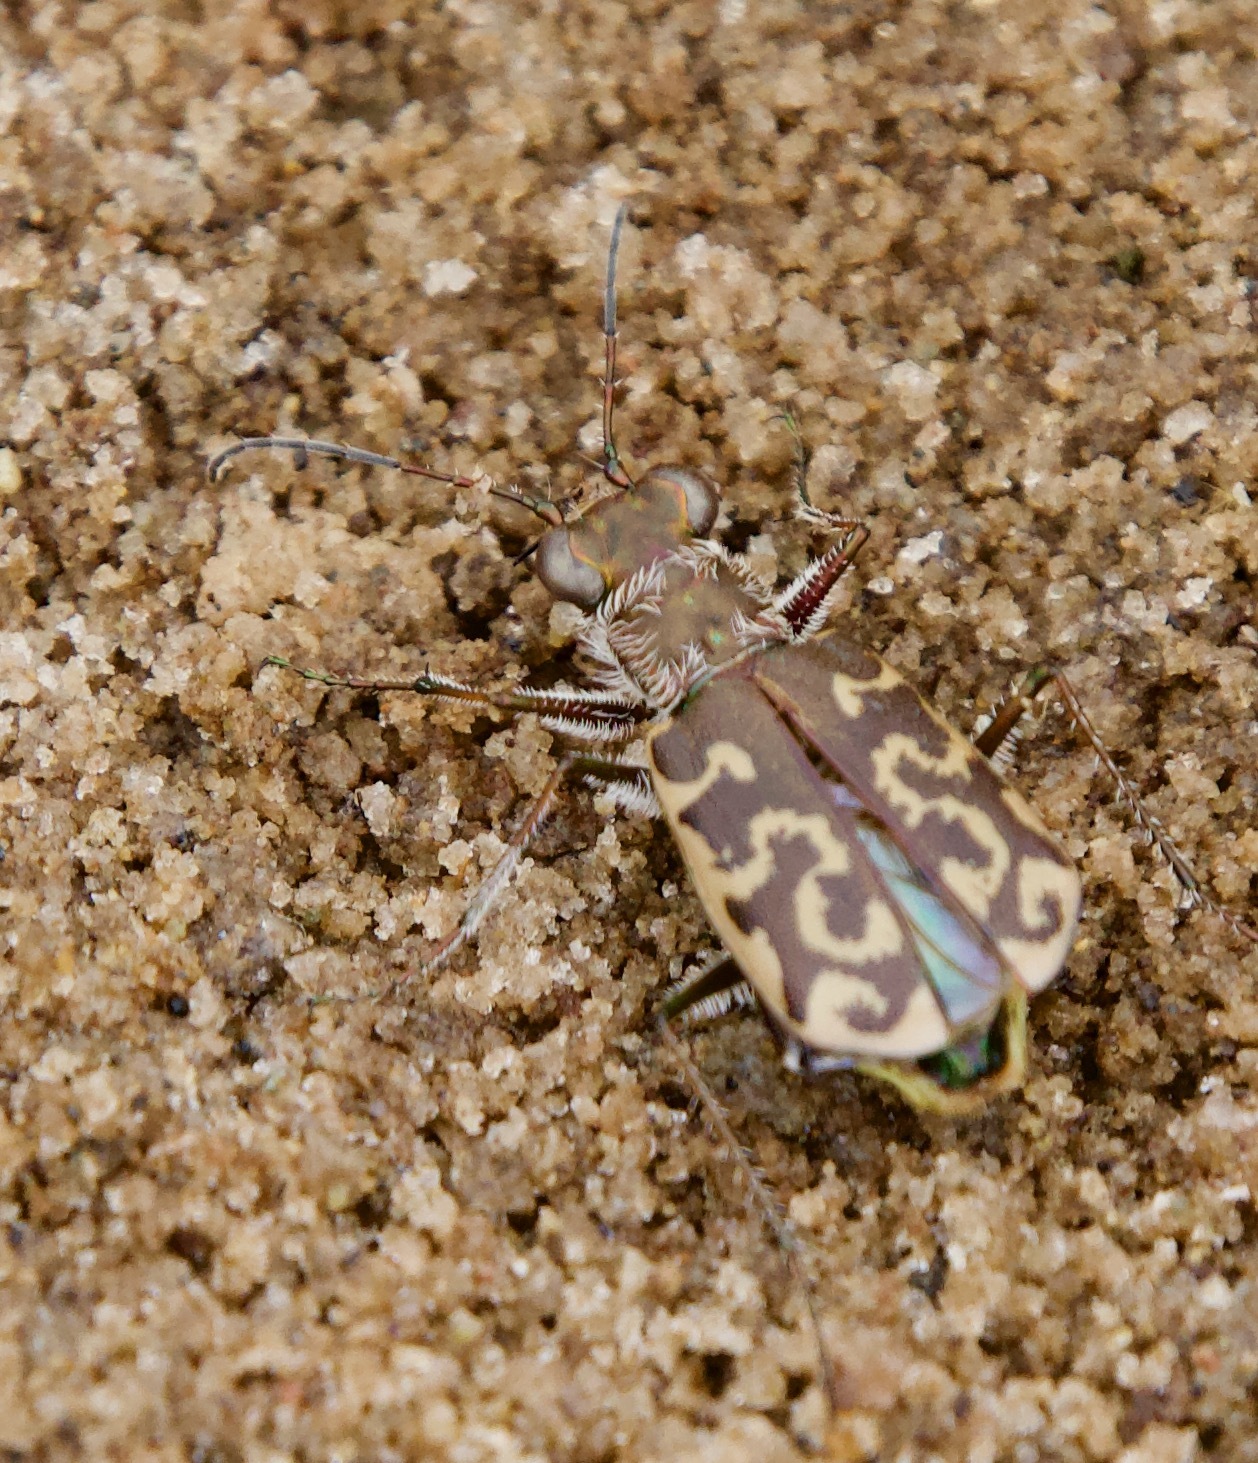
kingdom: Animalia
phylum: Arthropoda
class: Insecta
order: Coleoptera
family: Carabidae
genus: Cicindela
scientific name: Cicindela trifasciata
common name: Mudflat tiger beetle
